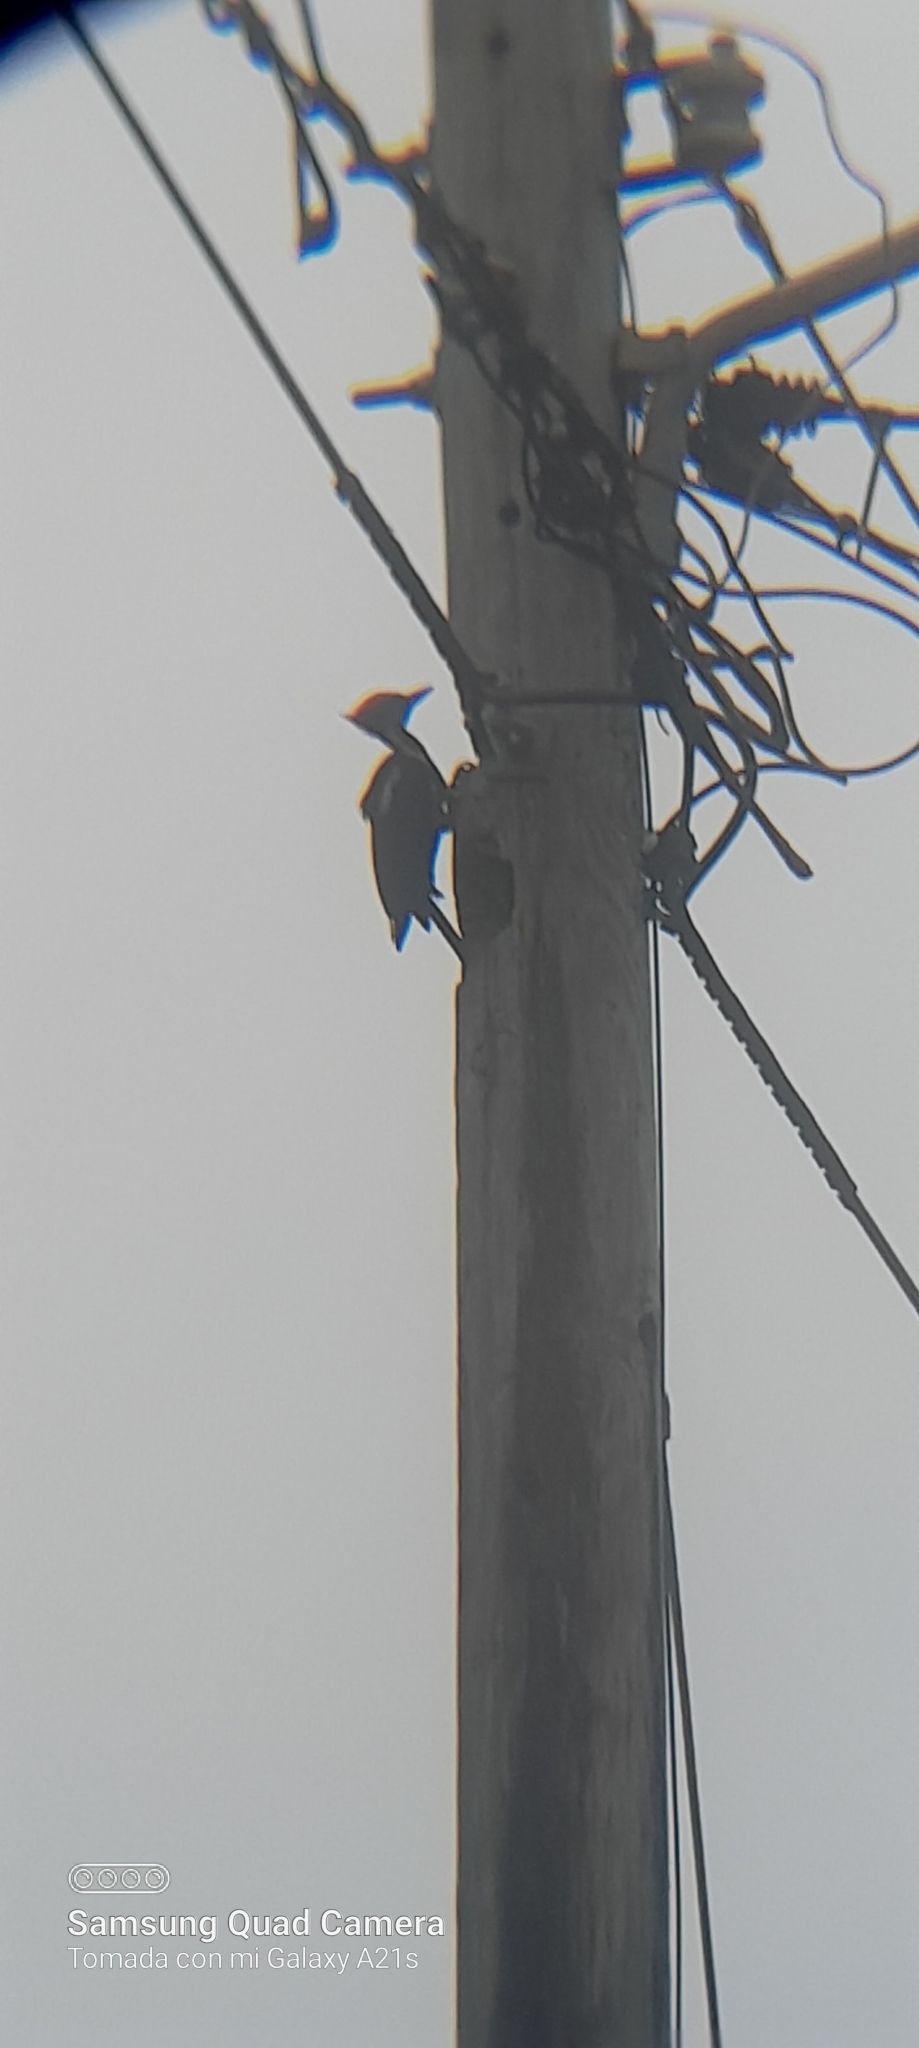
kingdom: Animalia
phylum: Chordata
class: Aves
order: Piciformes
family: Picidae
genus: Dryocopus
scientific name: Dryocopus lineatus
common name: Lineated woodpecker
